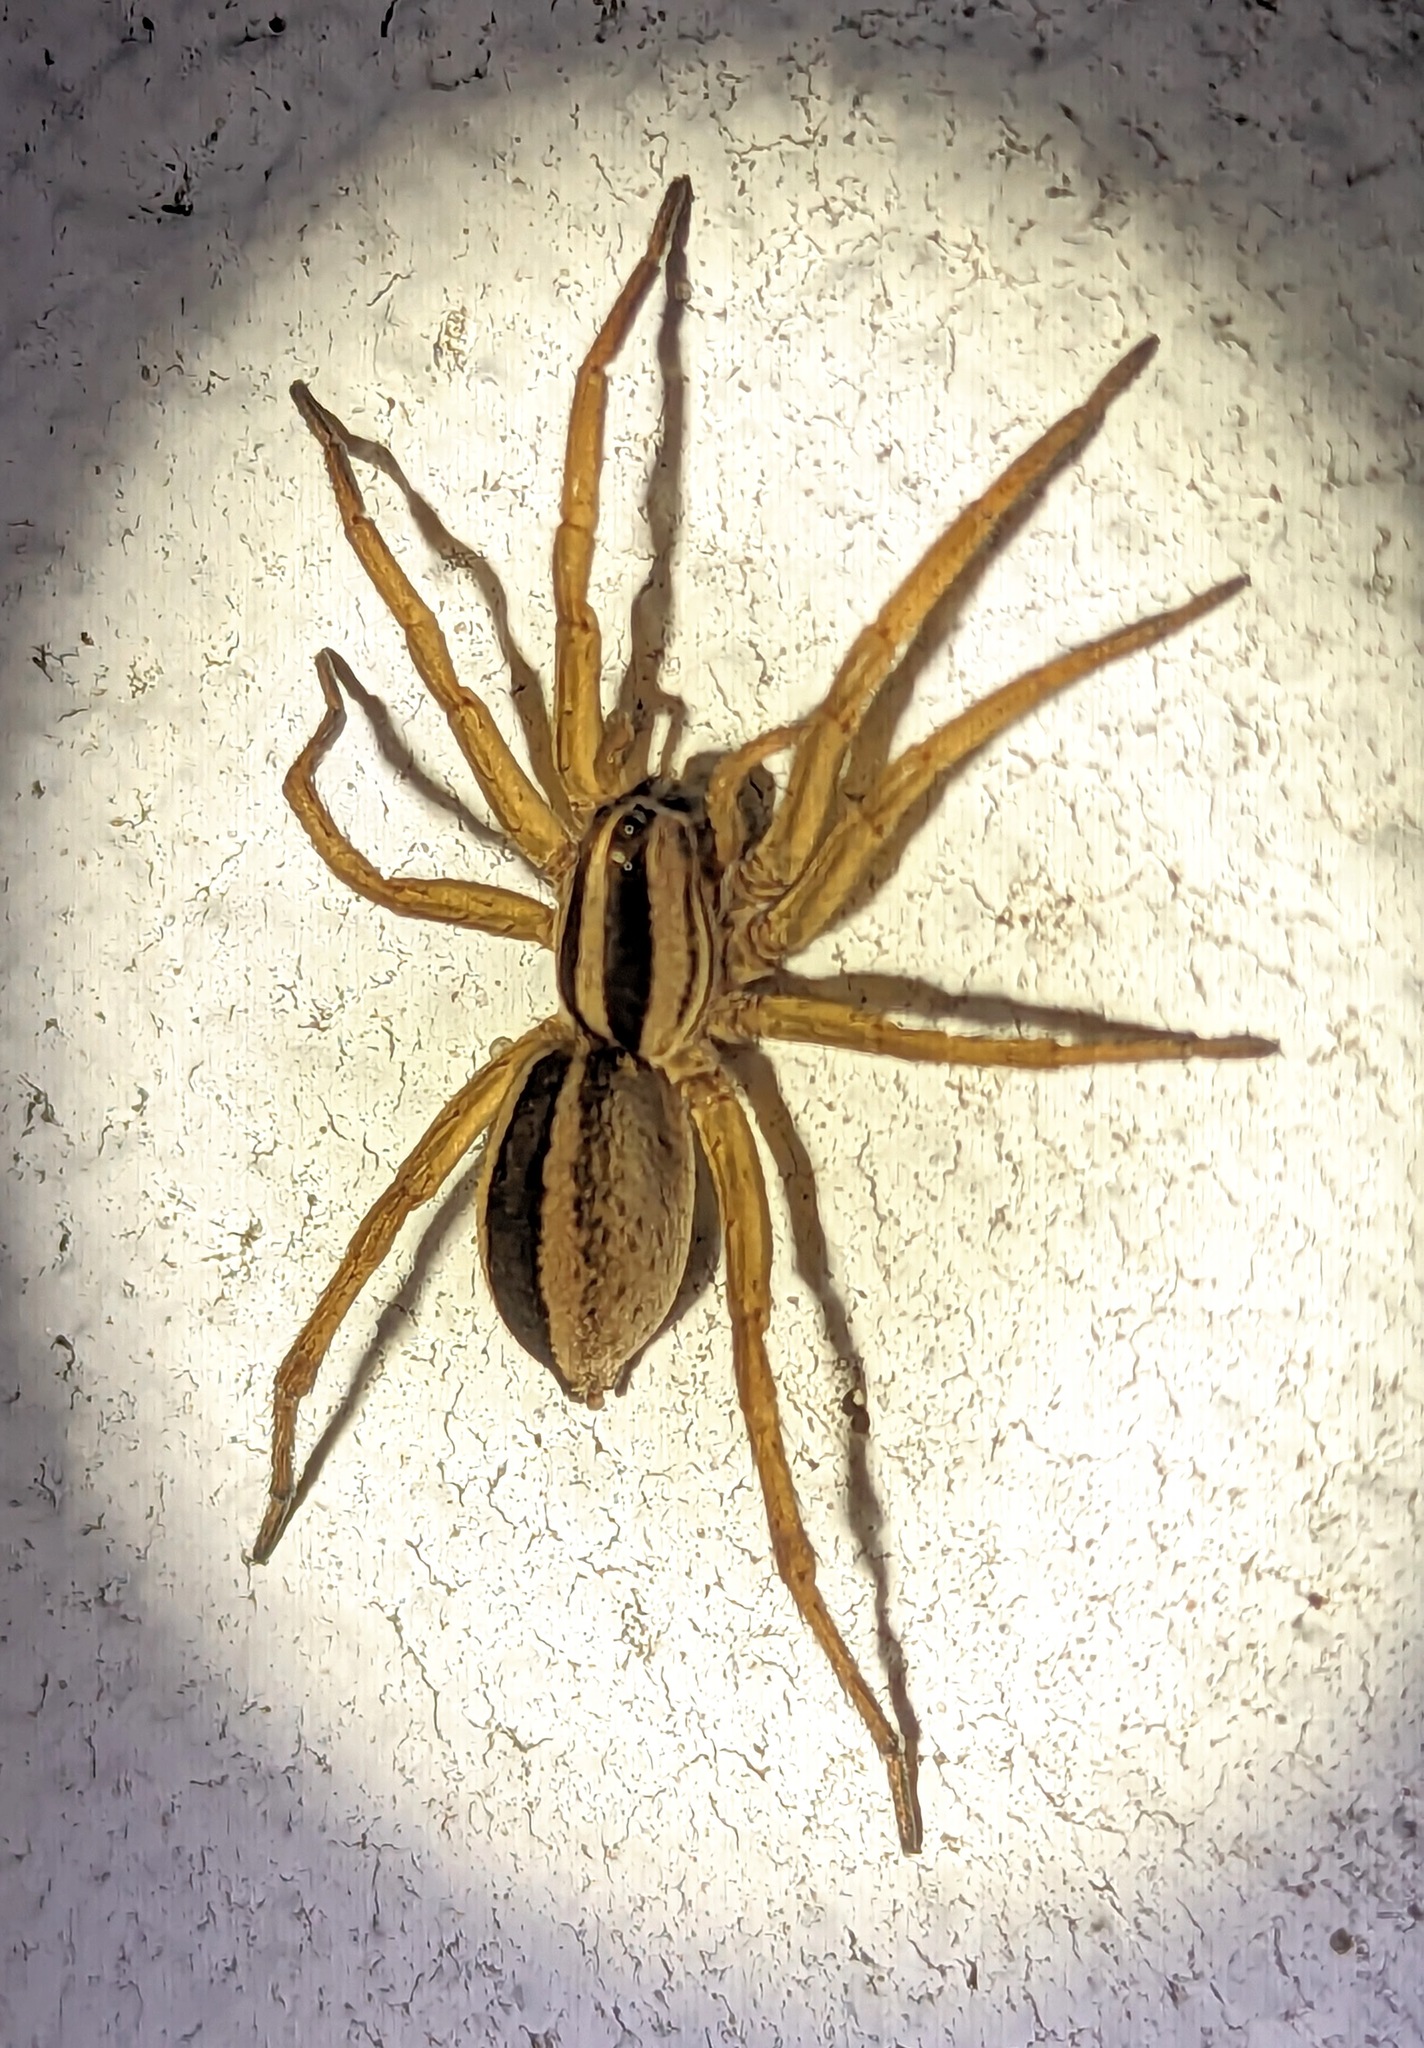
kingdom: Animalia
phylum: Arthropoda
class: Arachnida
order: Araneae
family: Lycosidae
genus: Rabidosa
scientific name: Rabidosa punctulata
